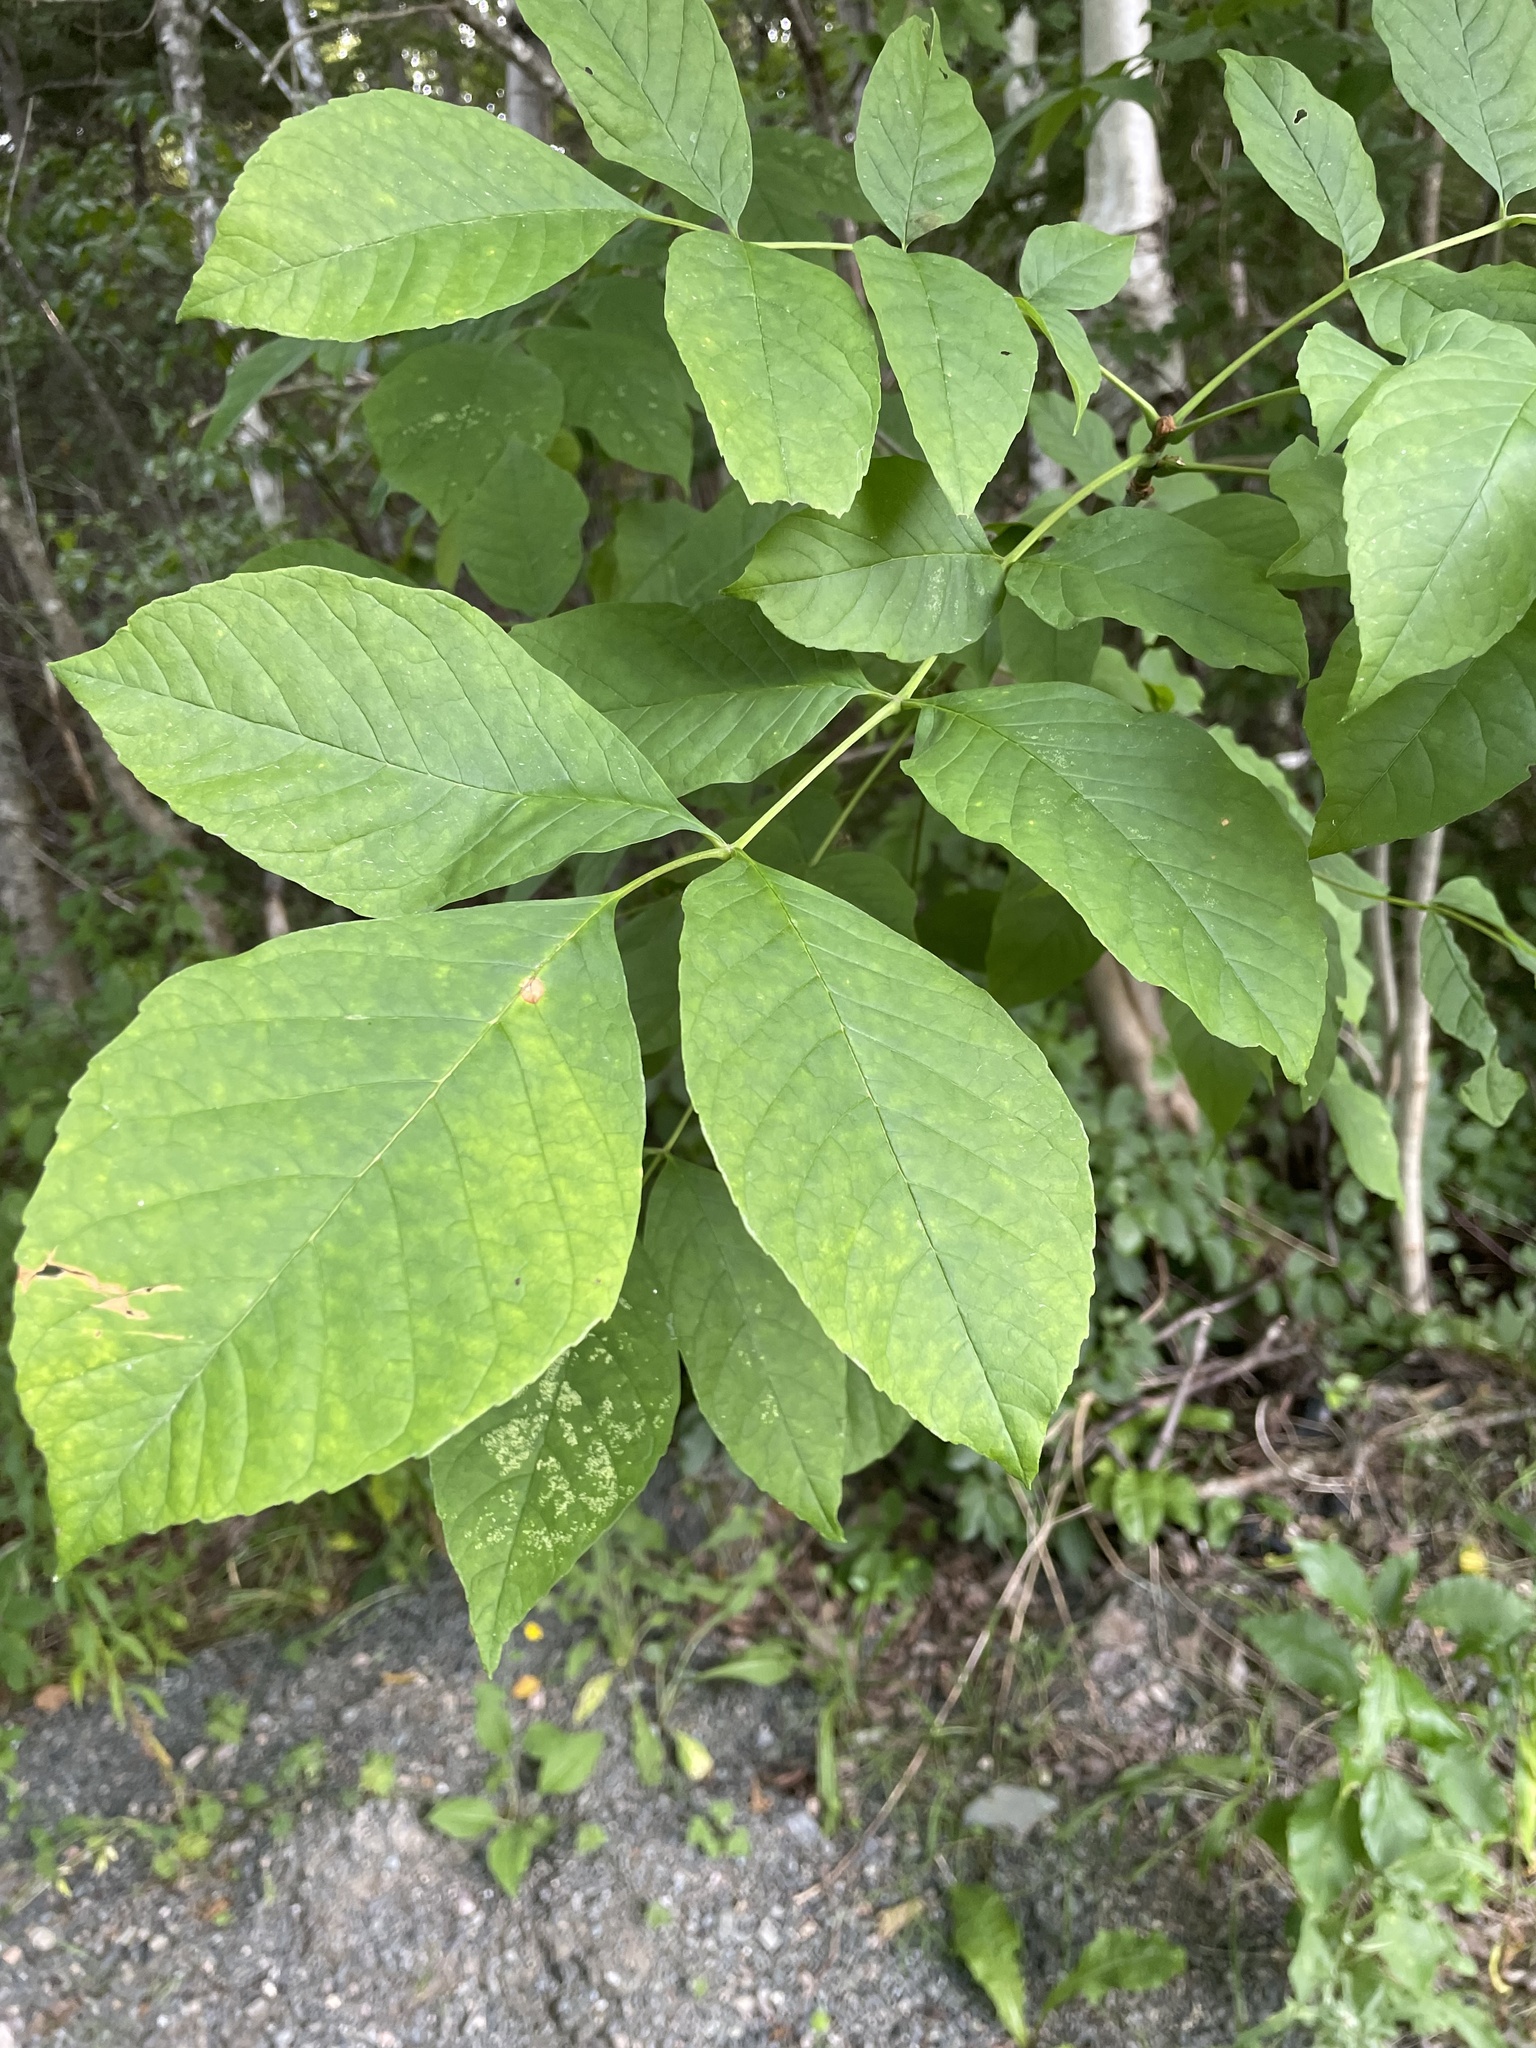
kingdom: Plantae
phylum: Tracheophyta
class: Magnoliopsida
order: Lamiales
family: Oleaceae
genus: Fraxinus
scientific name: Fraxinus americana
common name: White ash
